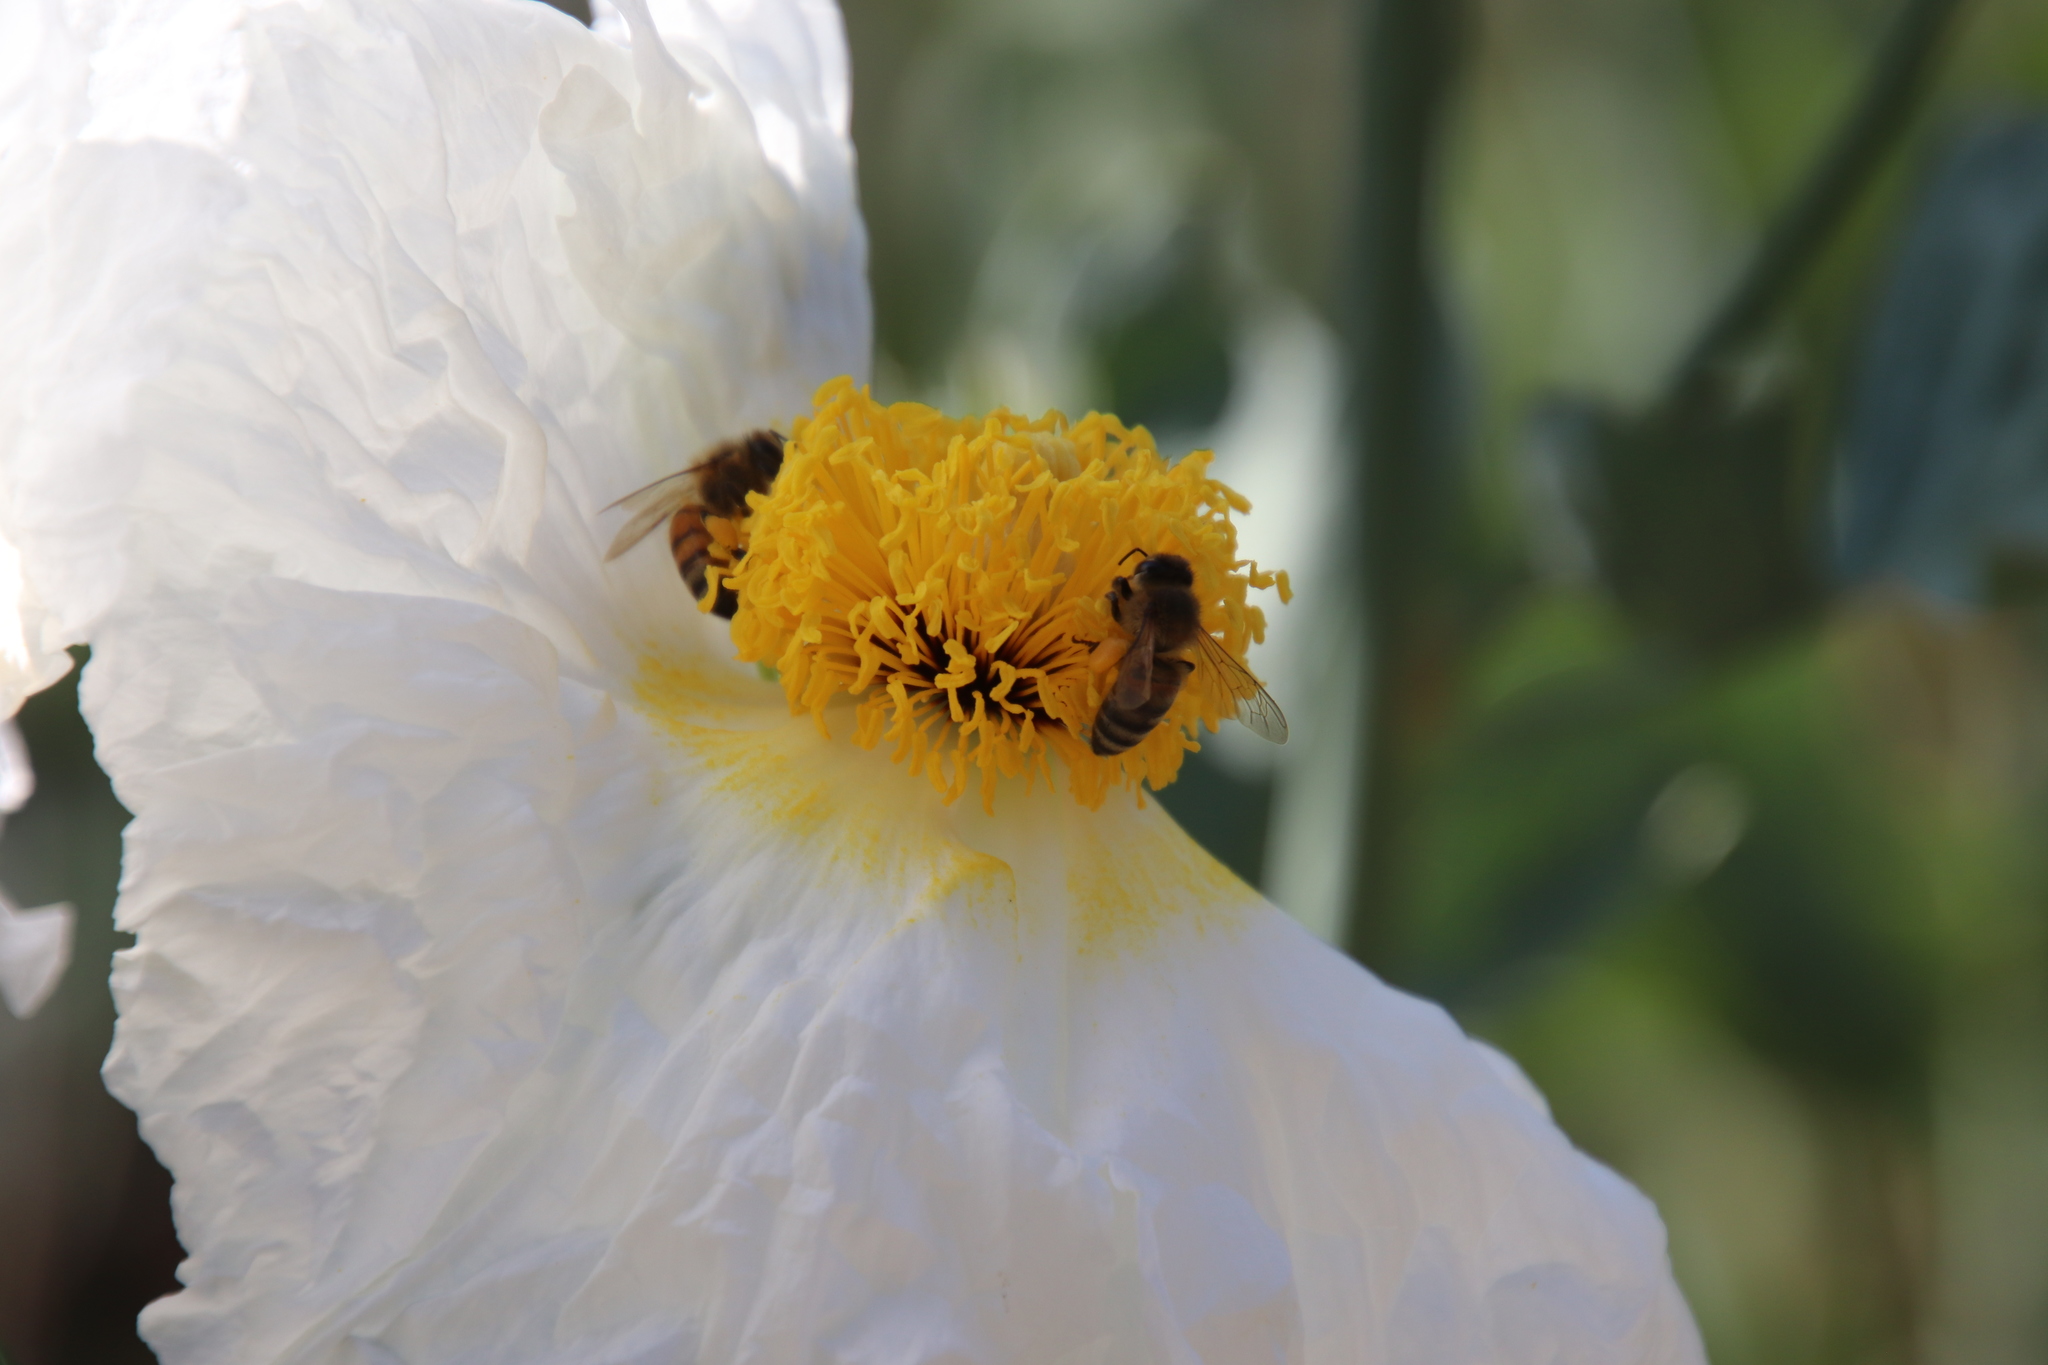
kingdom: Animalia
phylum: Arthropoda
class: Insecta
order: Hymenoptera
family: Apidae
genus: Apis
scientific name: Apis mellifera
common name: Honey bee
